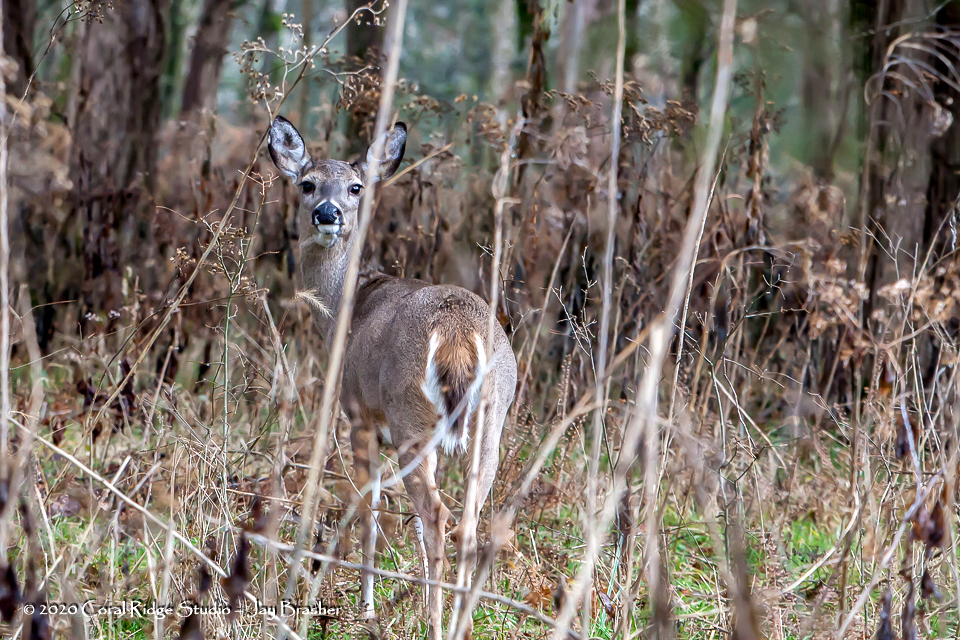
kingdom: Animalia
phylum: Chordata
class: Mammalia
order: Artiodactyla
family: Cervidae
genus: Odocoileus
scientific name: Odocoileus virginianus
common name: White-tailed deer
